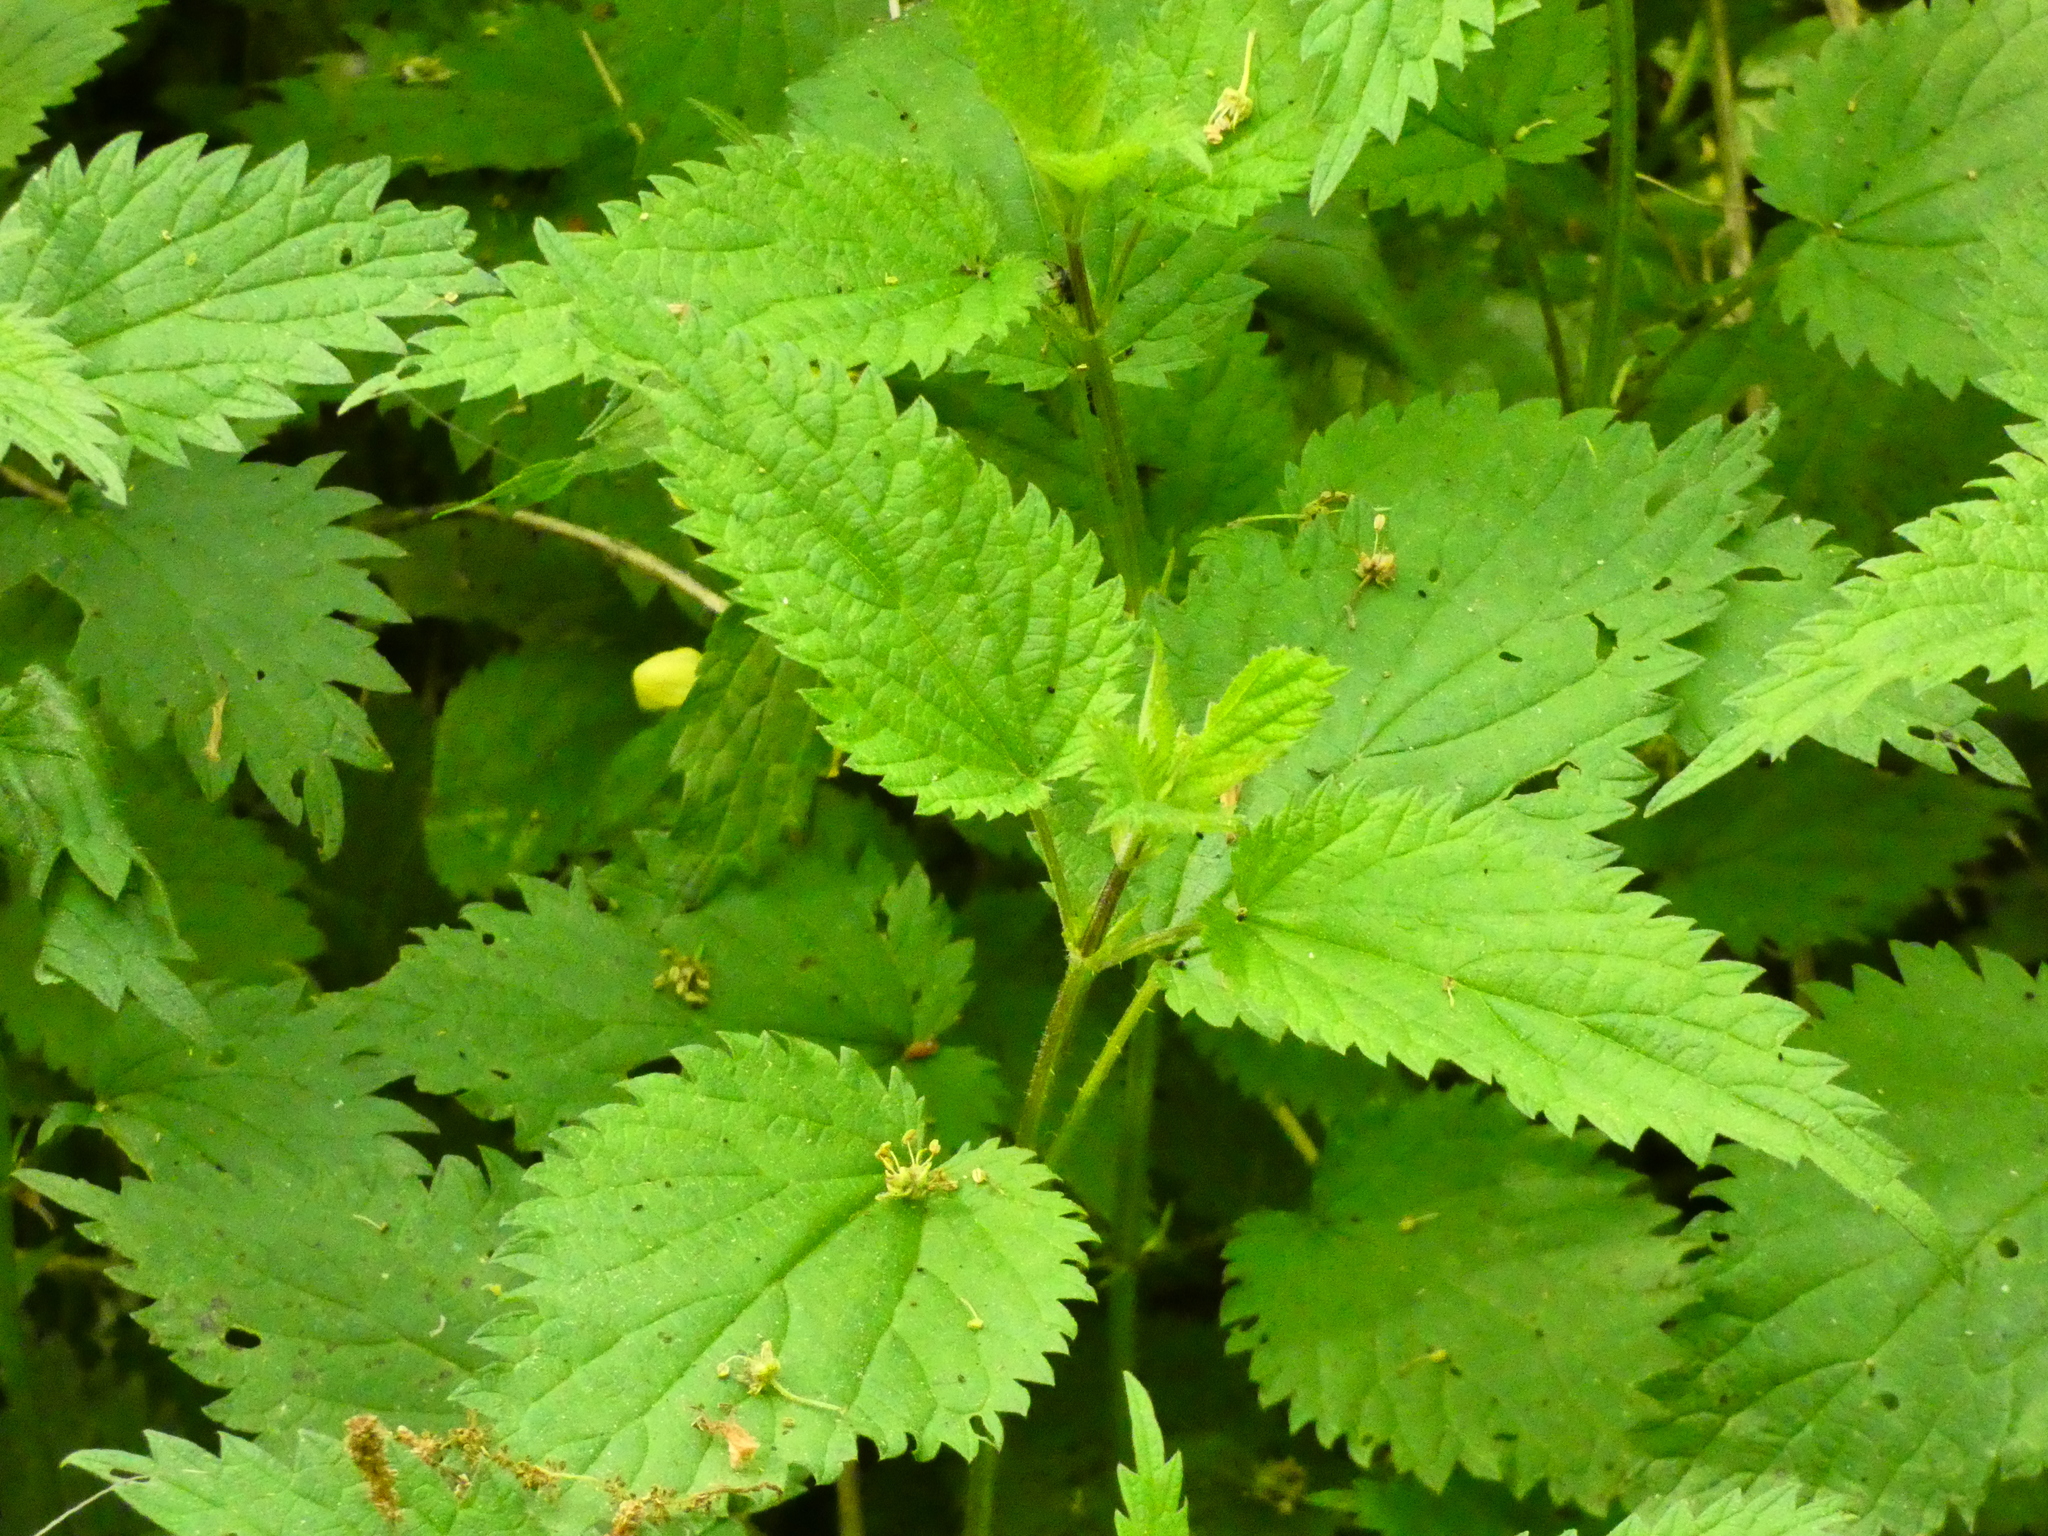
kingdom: Plantae
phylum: Tracheophyta
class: Magnoliopsida
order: Rosales
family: Urticaceae
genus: Urtica
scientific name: Urtica dioica
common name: Common nettle
